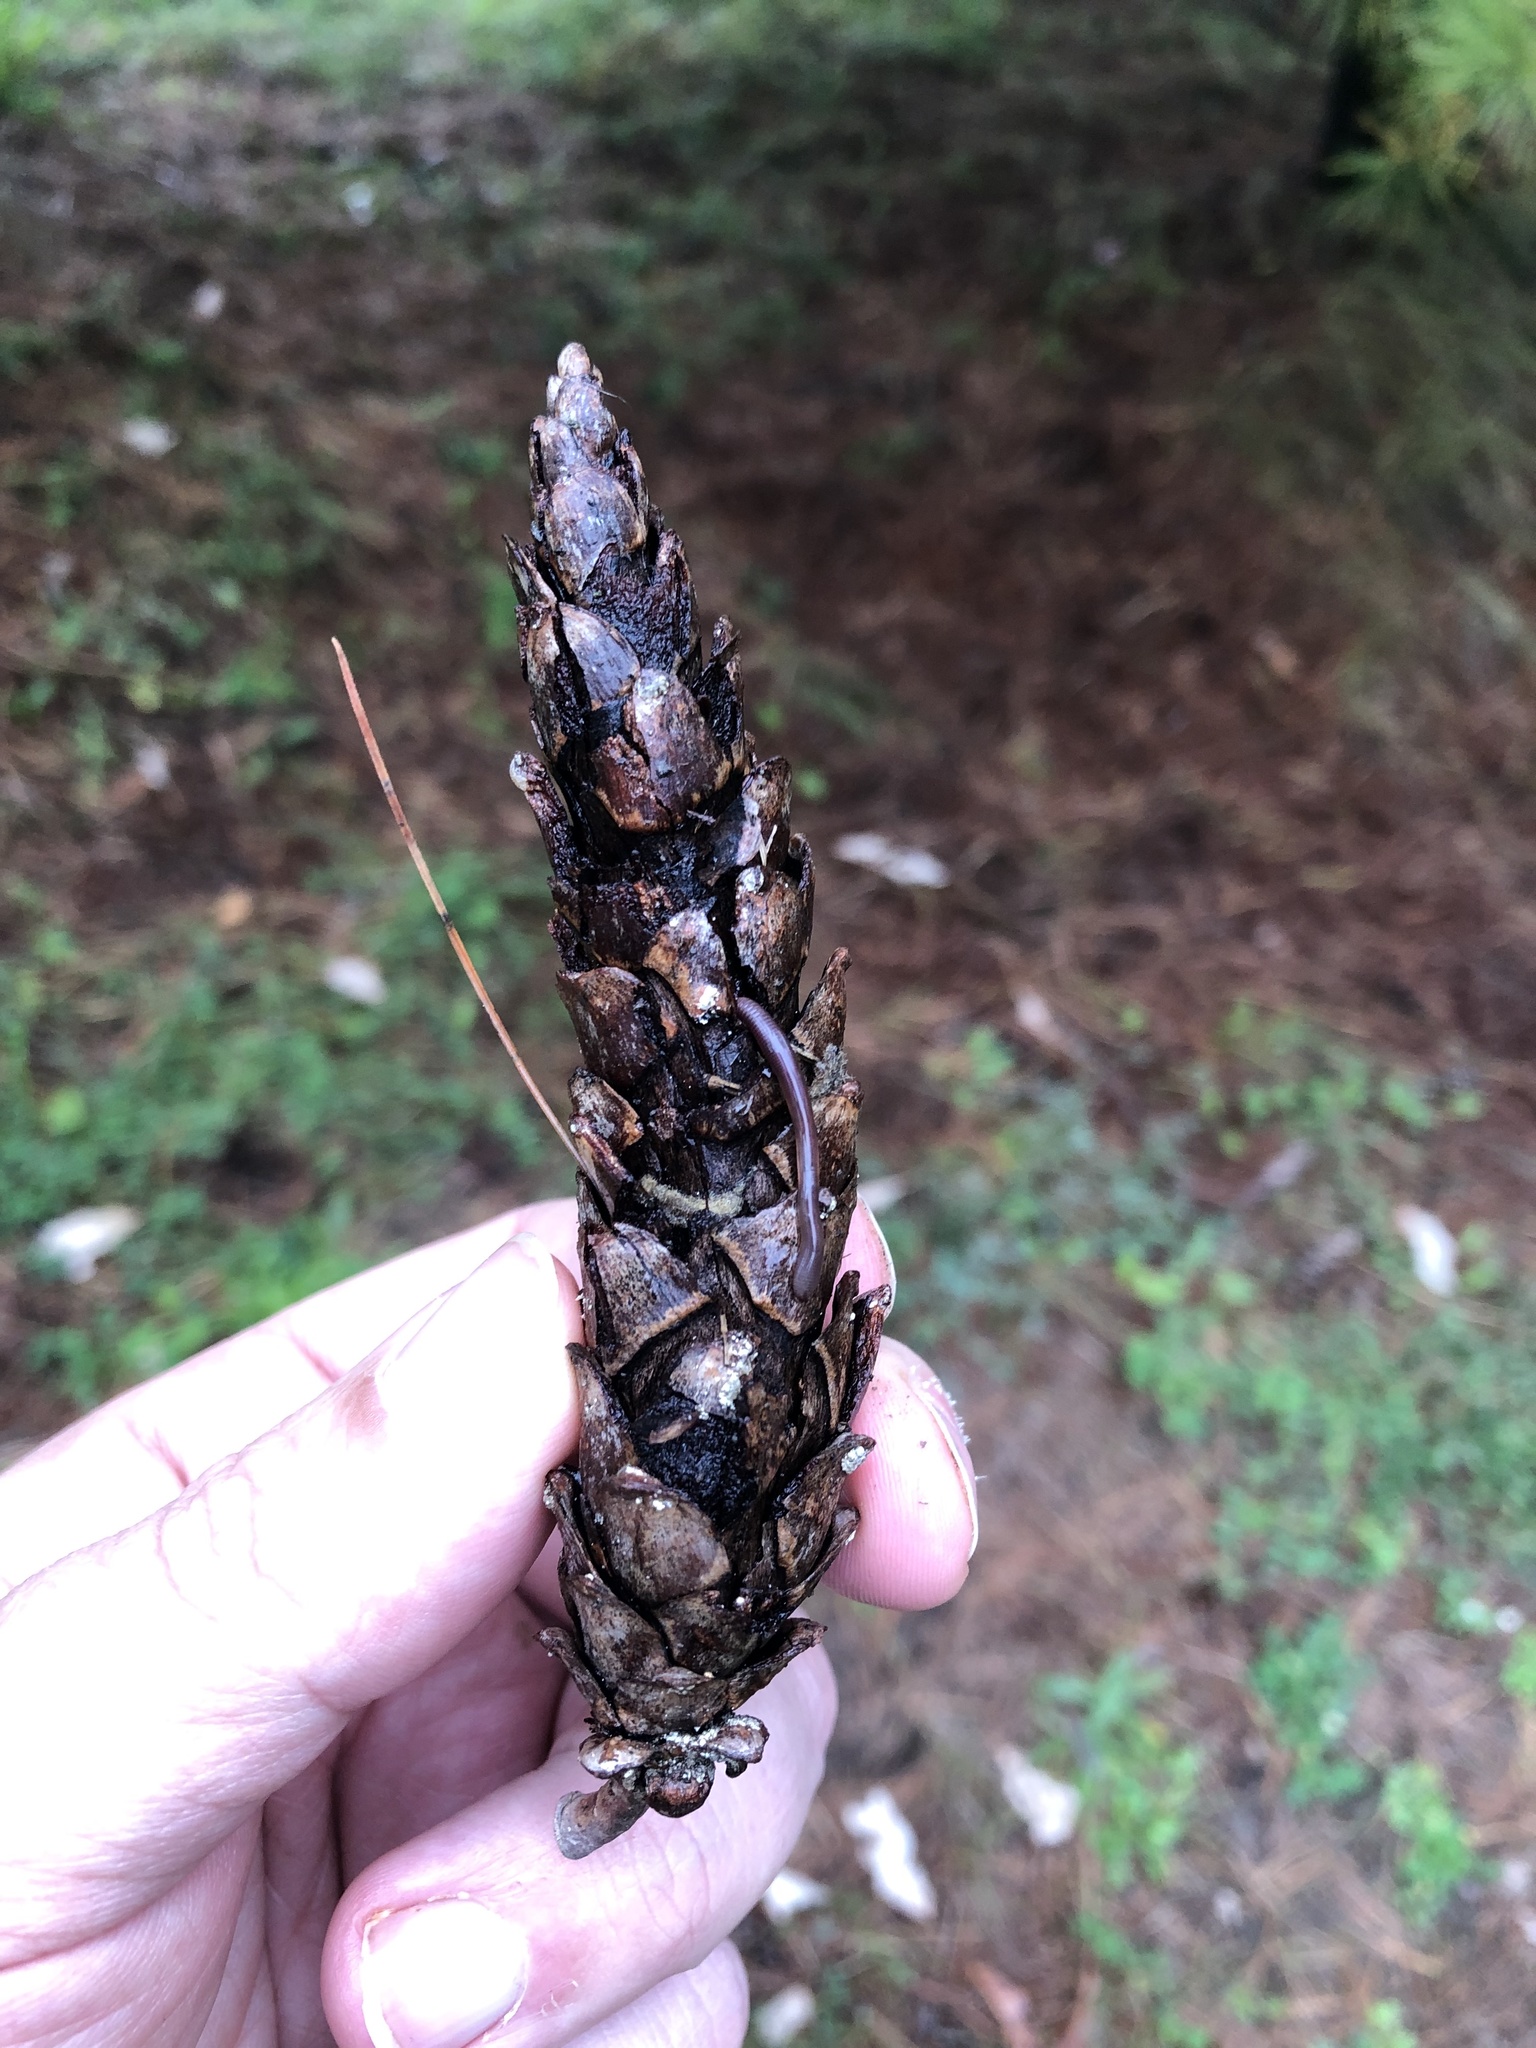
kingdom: Plantae
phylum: Tracheophyta
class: Pinopsida
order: Pinales
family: Pinaceae
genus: Pinus
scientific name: Pinus strobus
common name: Weymouth pine
